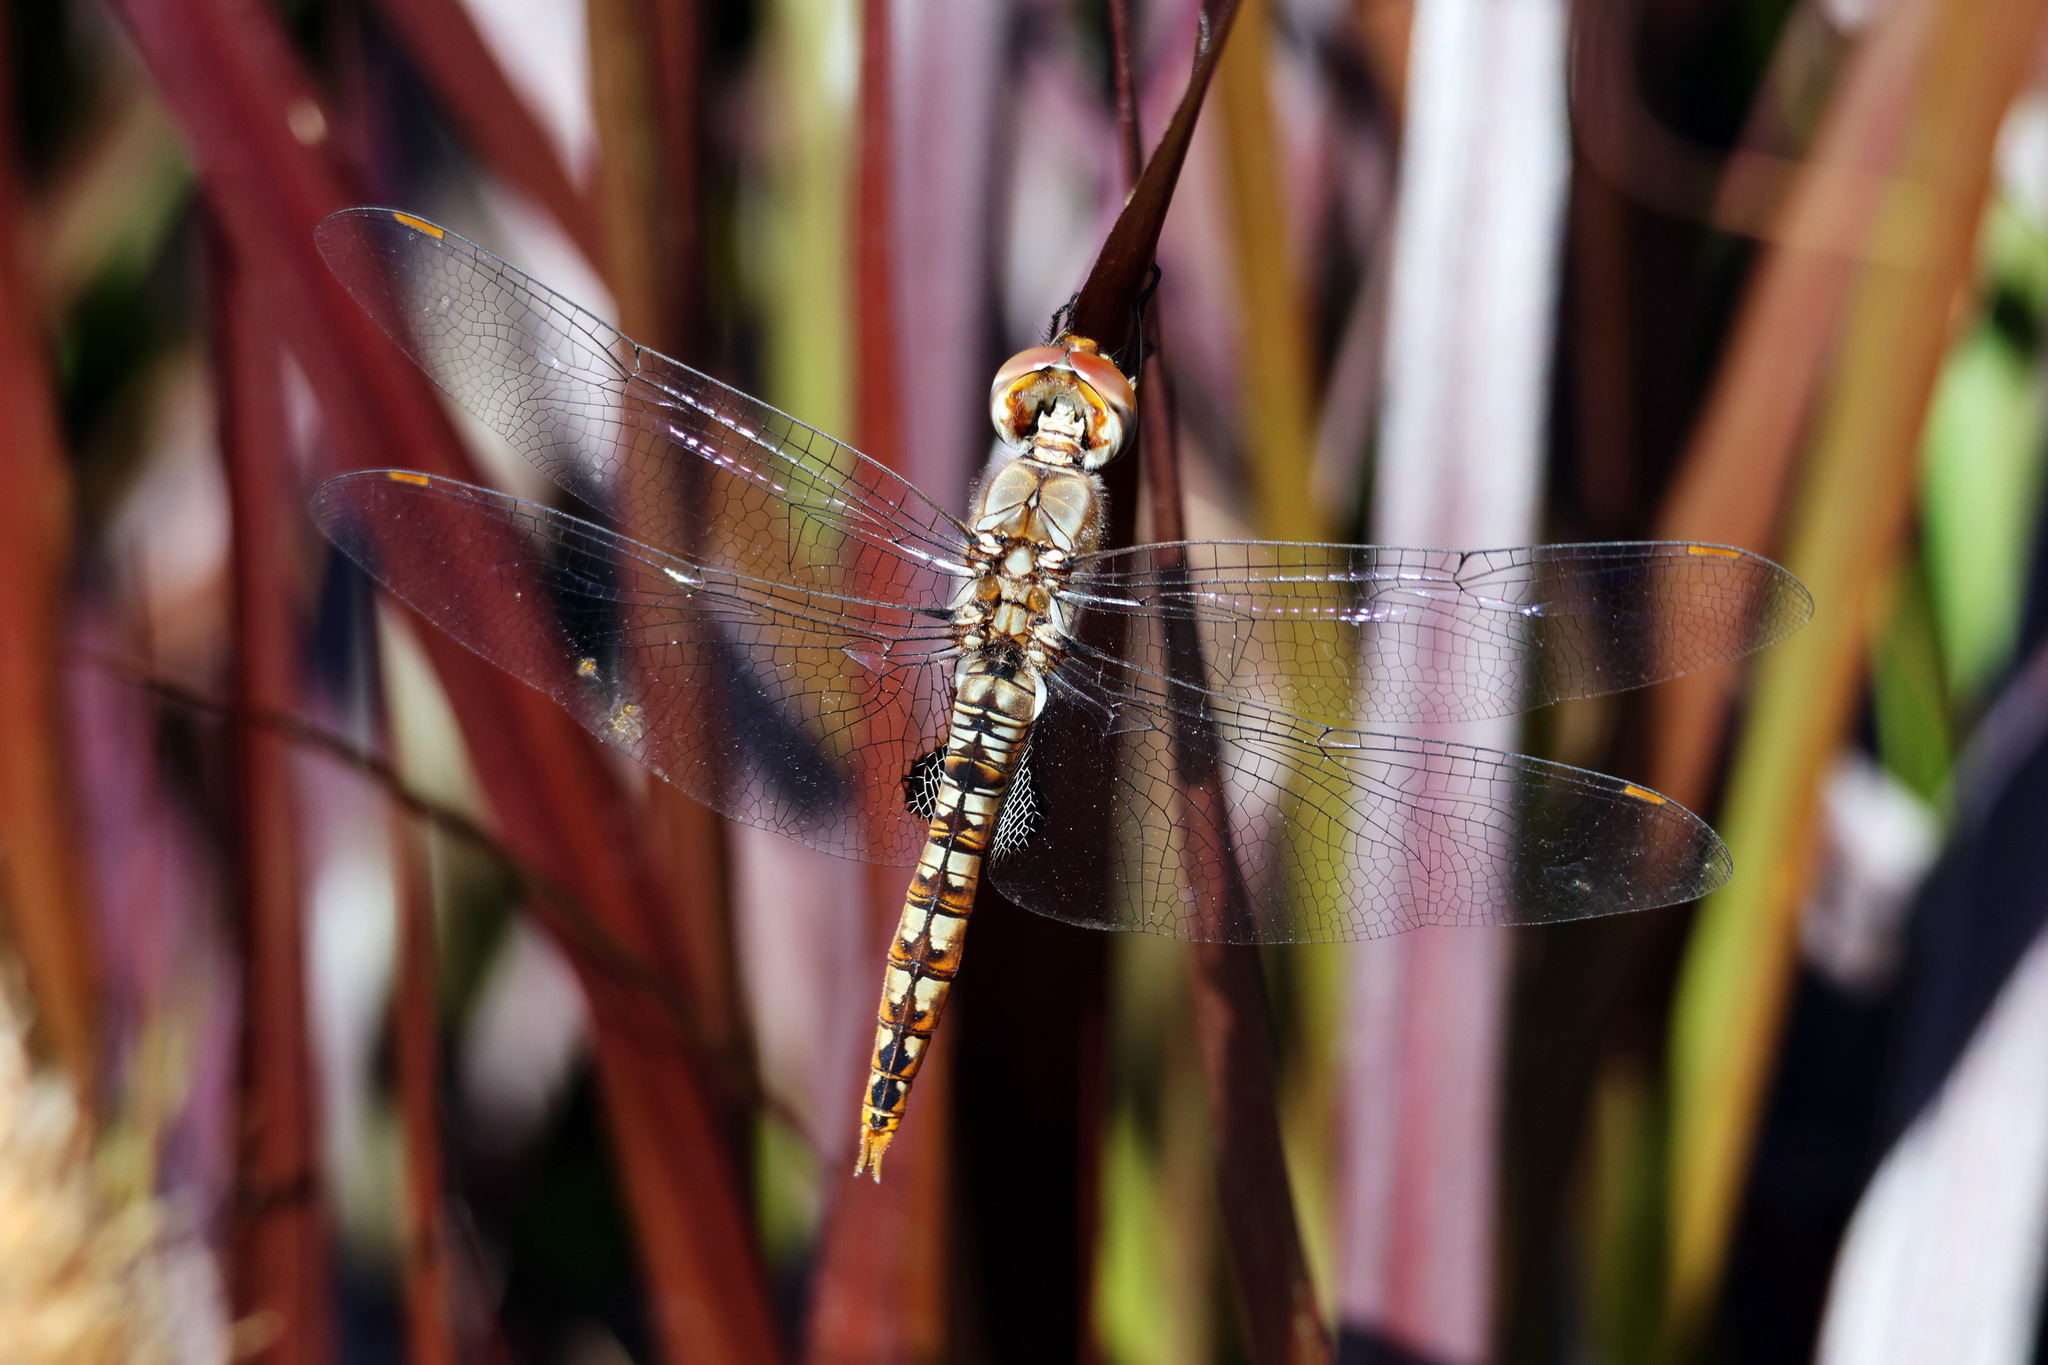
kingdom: Animalia
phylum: Arthropoda
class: Insecta
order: Odonata
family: Libellulidae
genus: Pantala
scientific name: Pantala hymenaea
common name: Spot-winged glider
